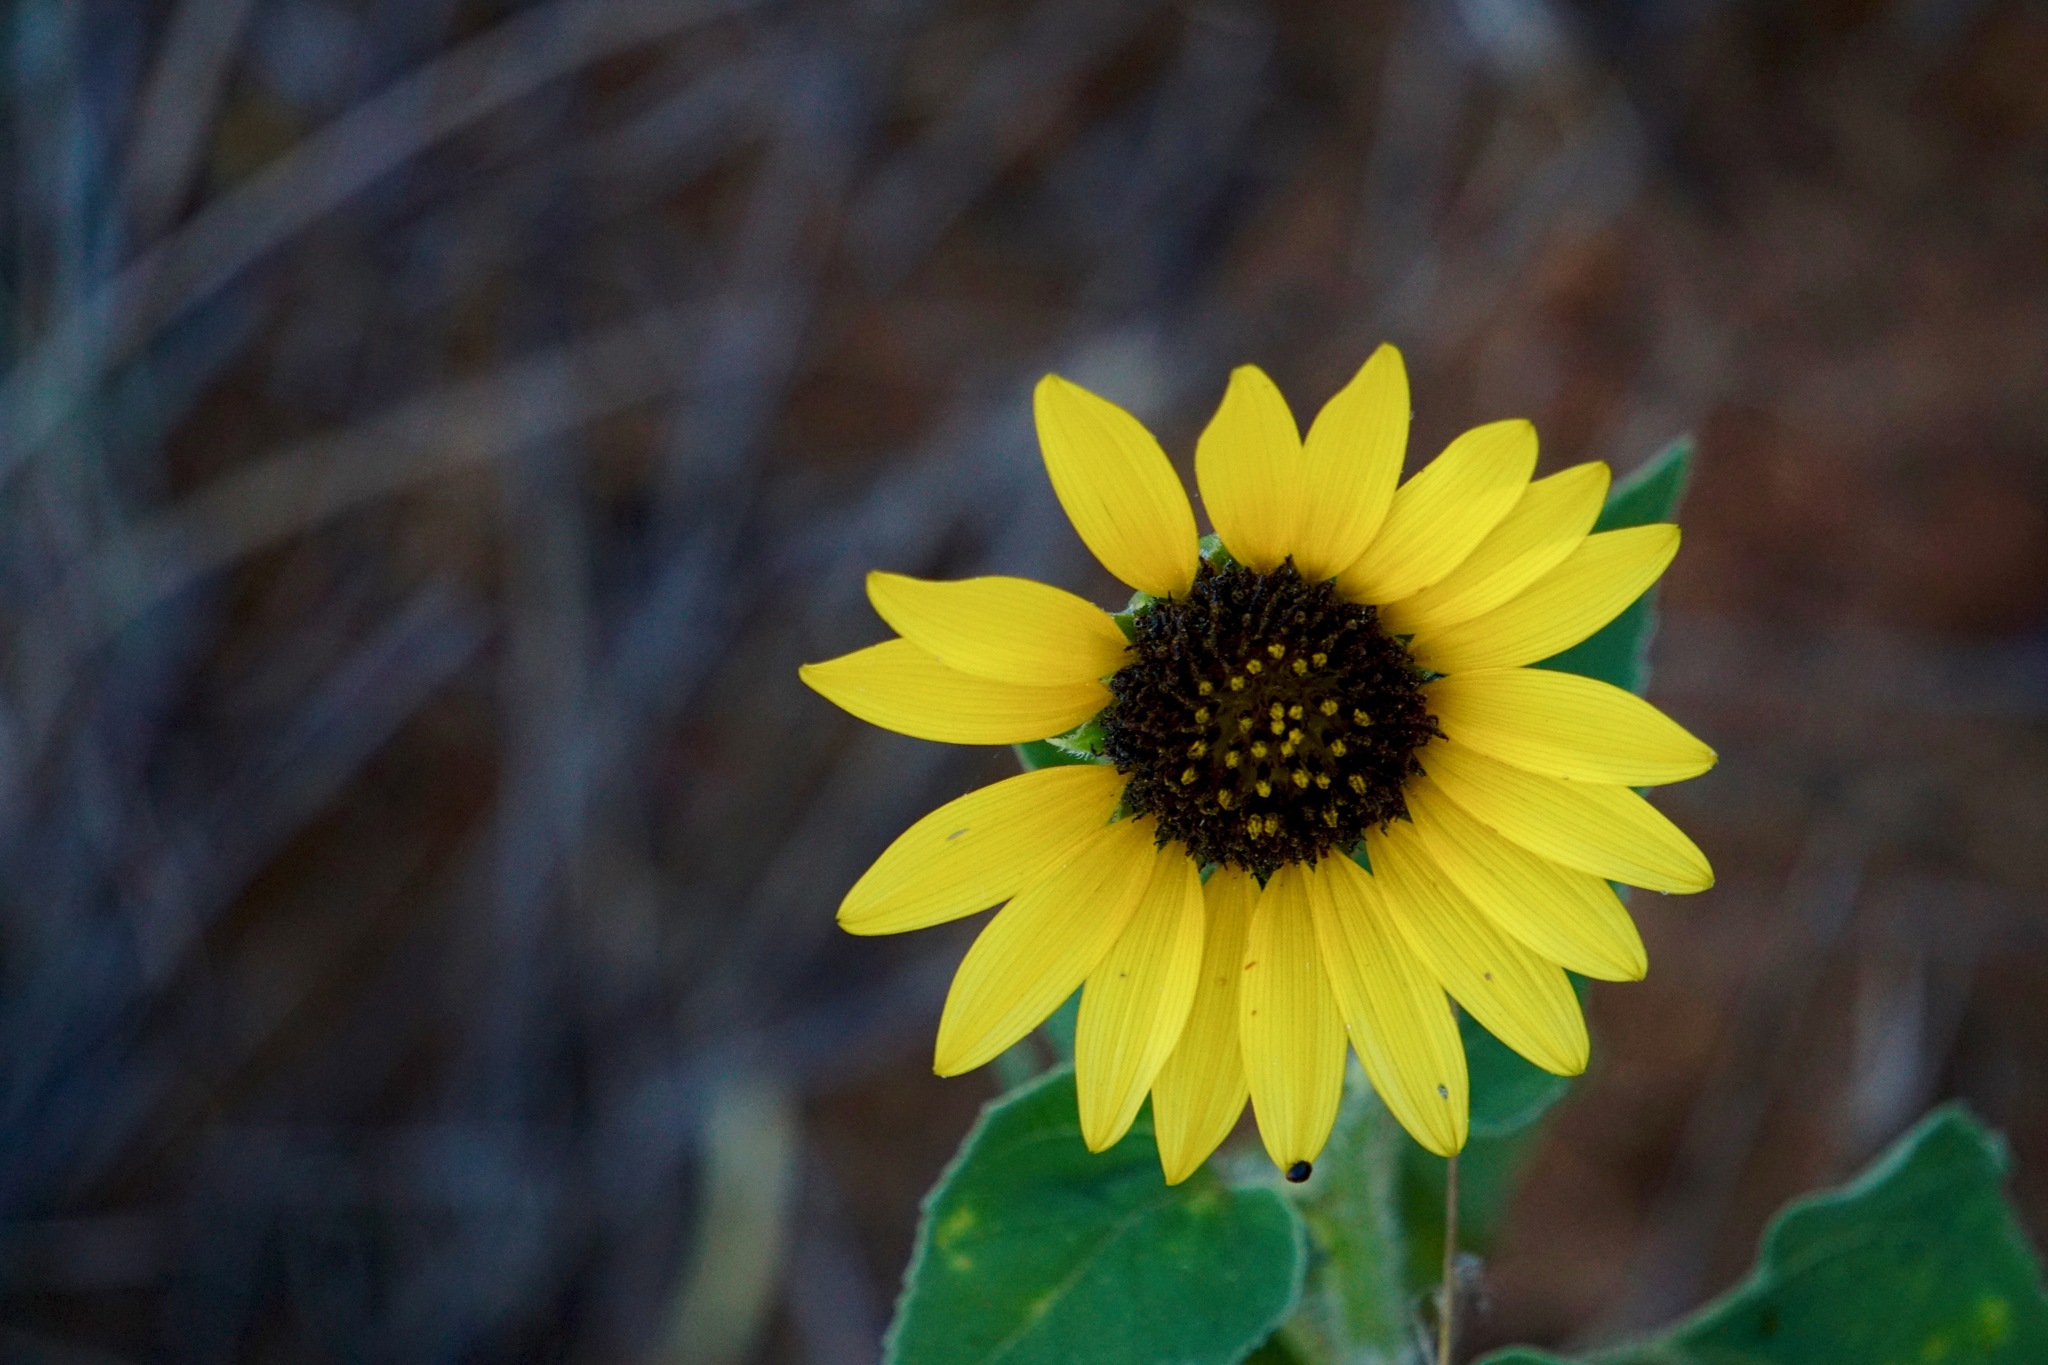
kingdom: Plantae
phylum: Tracheophyta
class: Magnoliopsida
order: Asterales
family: Asteraceae
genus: Helianthus
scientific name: Helianthus annuus
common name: Sunflower
